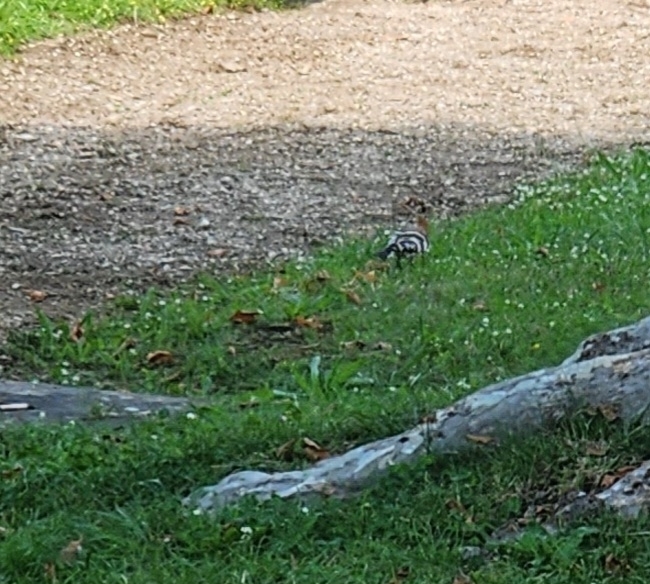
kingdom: Animalia
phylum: Chordata
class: Aves
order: Bucerotiformes
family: Upupidae
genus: Upupa
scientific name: Upupa epops
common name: Eurasian hoopoe
